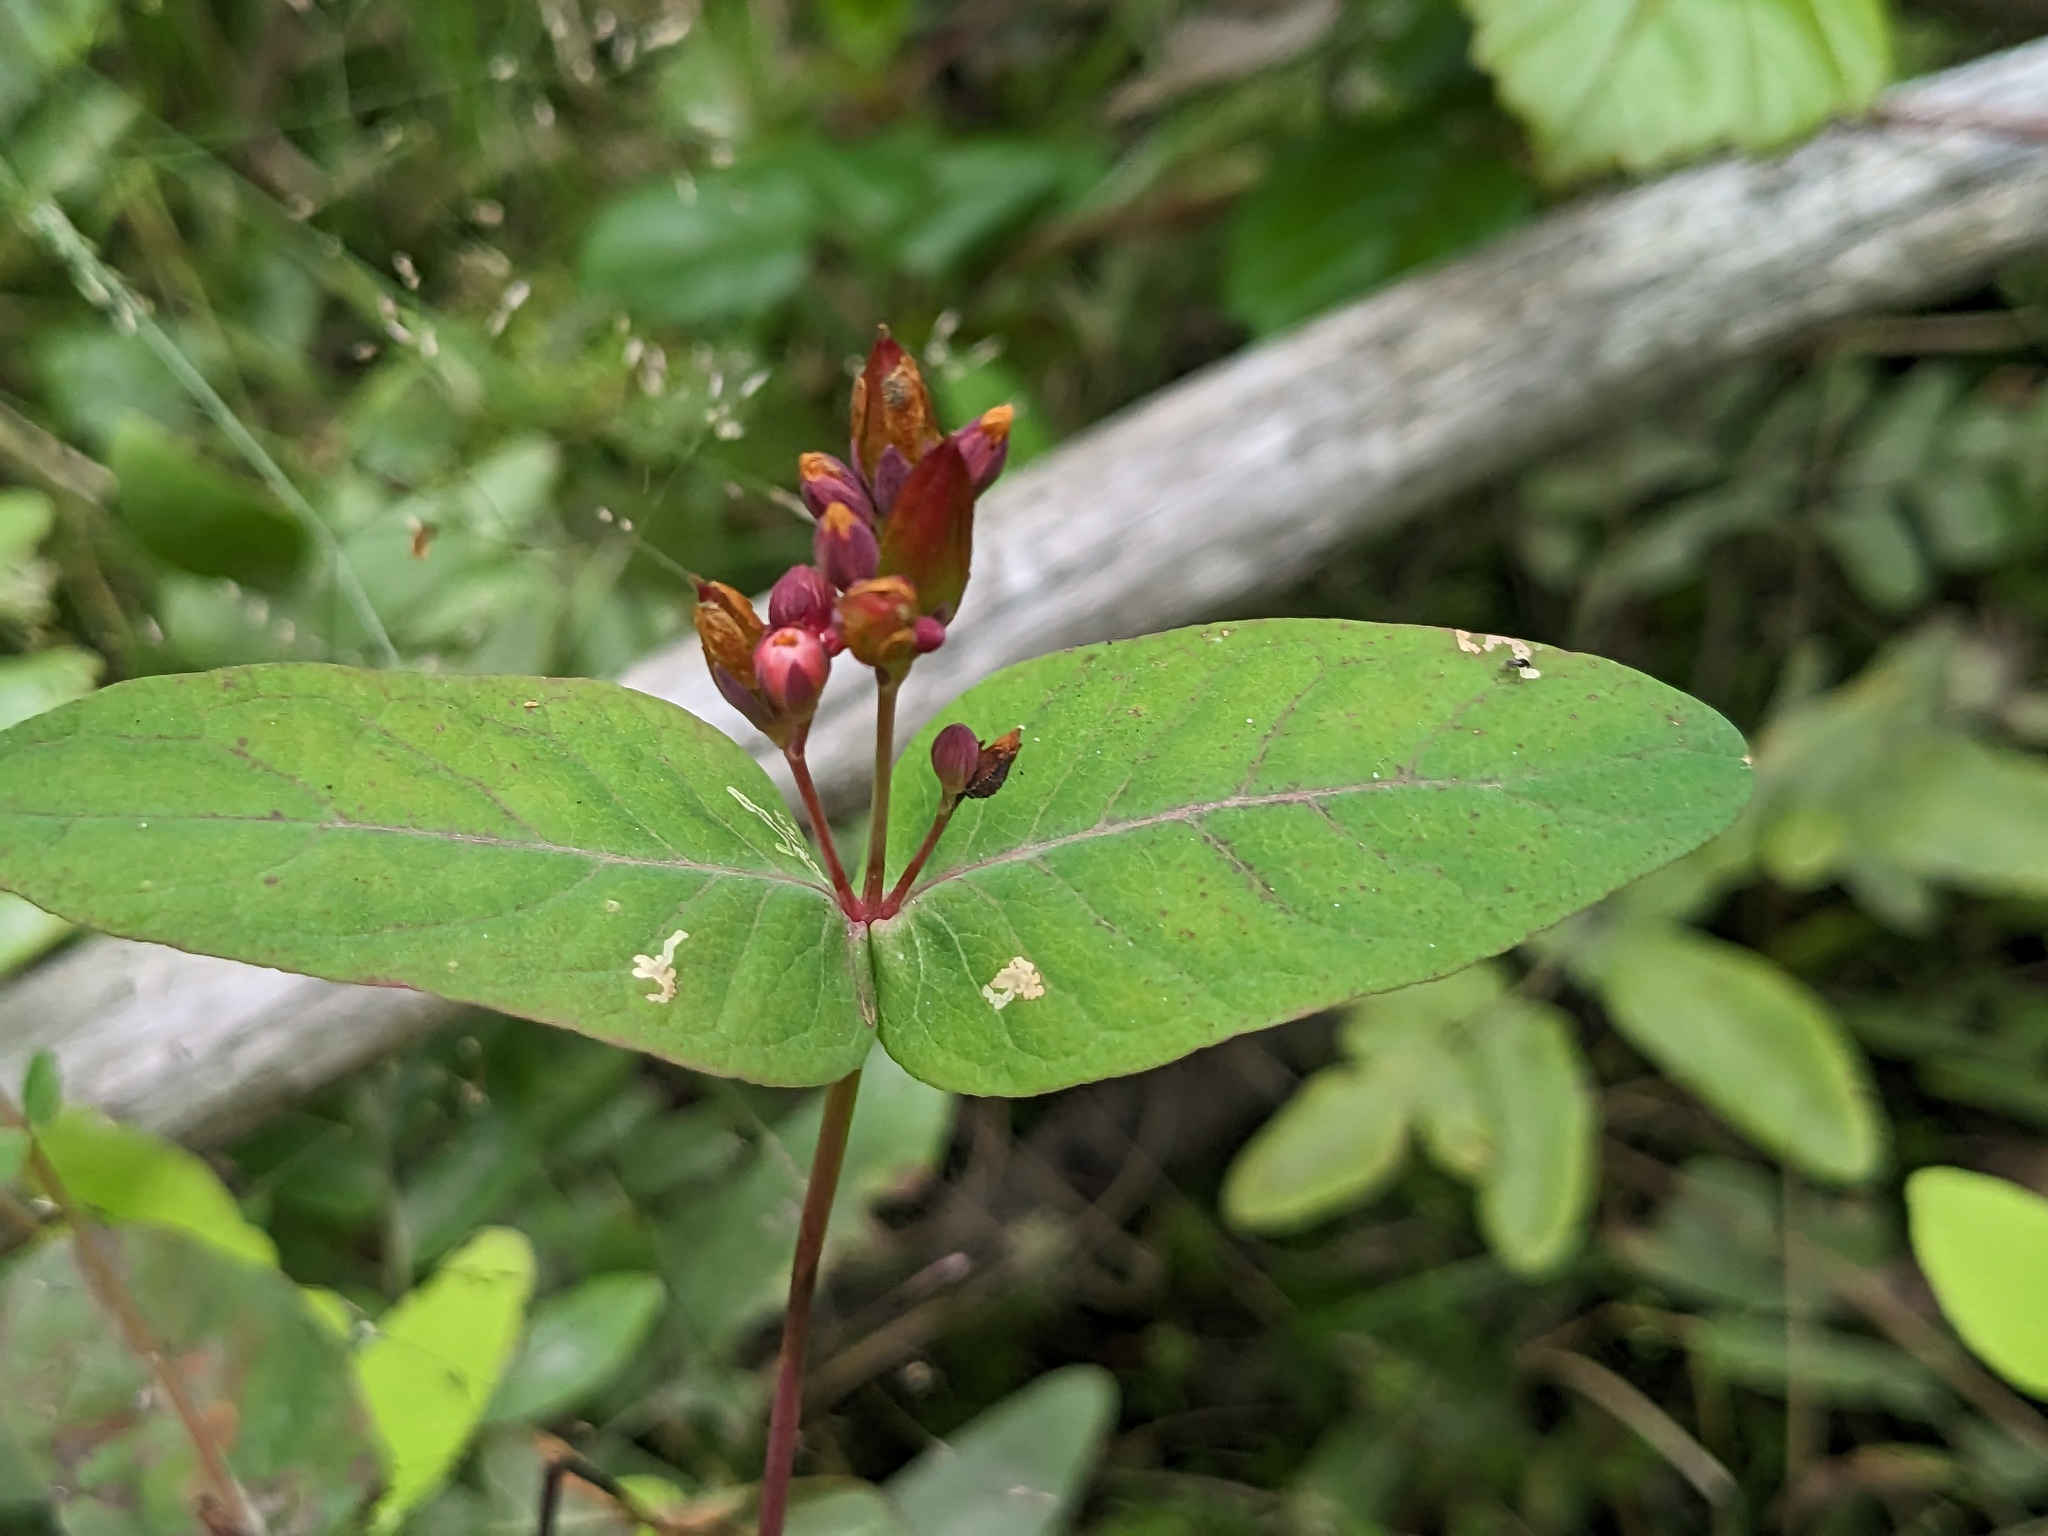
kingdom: Plantae
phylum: Tracheophyta
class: Magnoliopsida
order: Malpighiales
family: Hypericaceae
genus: Triadenum
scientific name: Triadenum virginicum
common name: Marsh st. john's-wort
